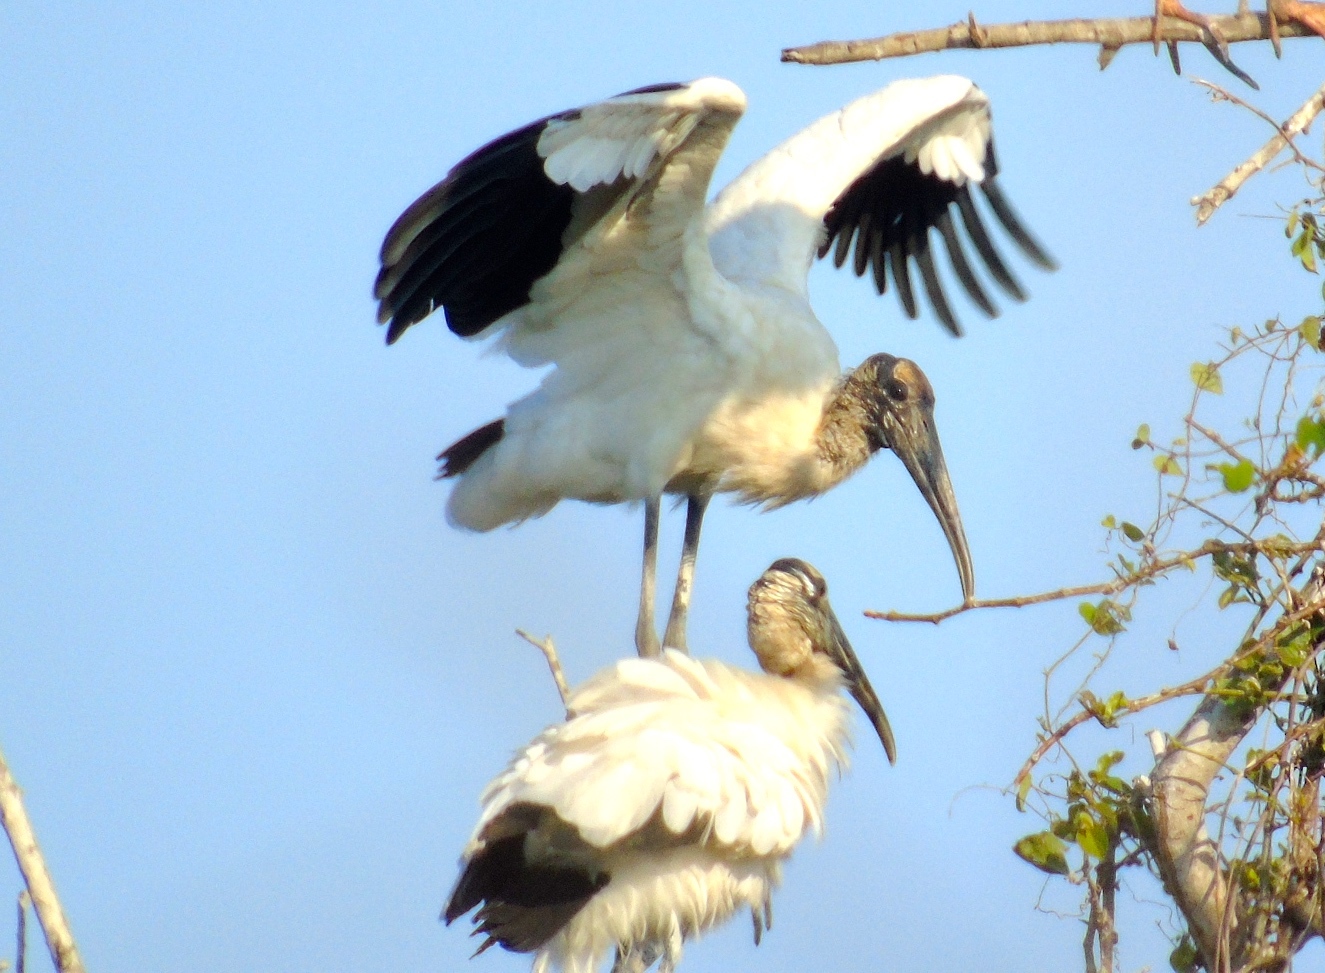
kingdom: Animalia
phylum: Chordata
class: Aves
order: Ciconiiformes
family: Ciconiidae
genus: Mycteria
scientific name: Mycteria americana
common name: Wood stork
